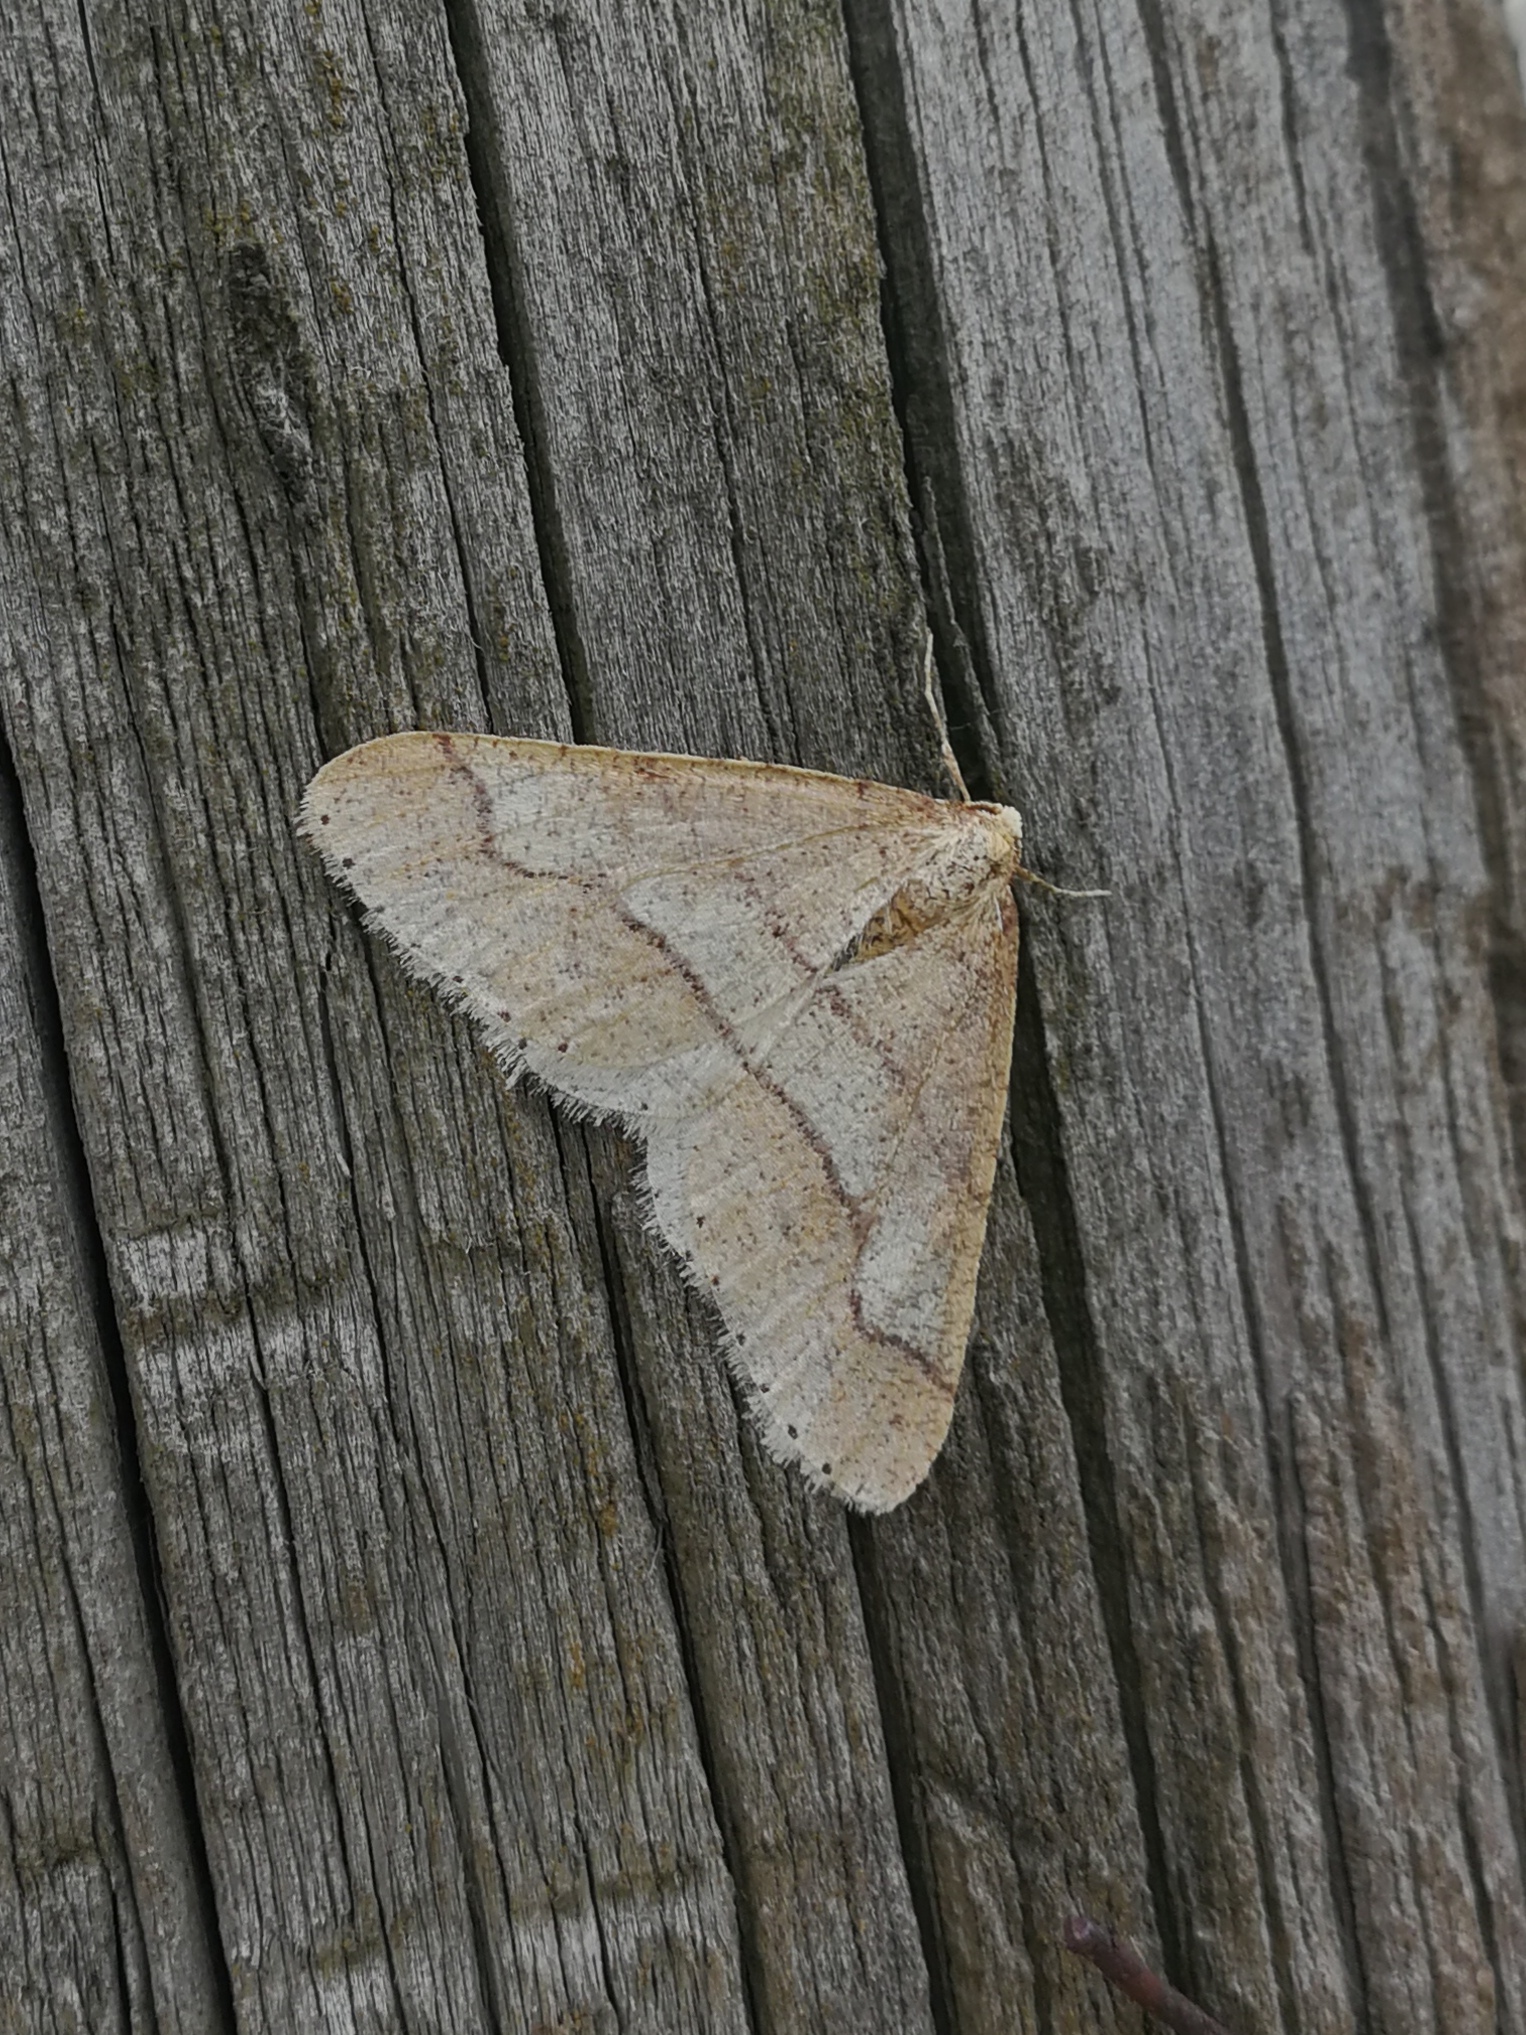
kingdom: Animalia
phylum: Arthropoda
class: Insecta
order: Lepidoptera
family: Geometridae
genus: Agriopis
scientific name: Agriopis marginaria
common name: Dotted border
